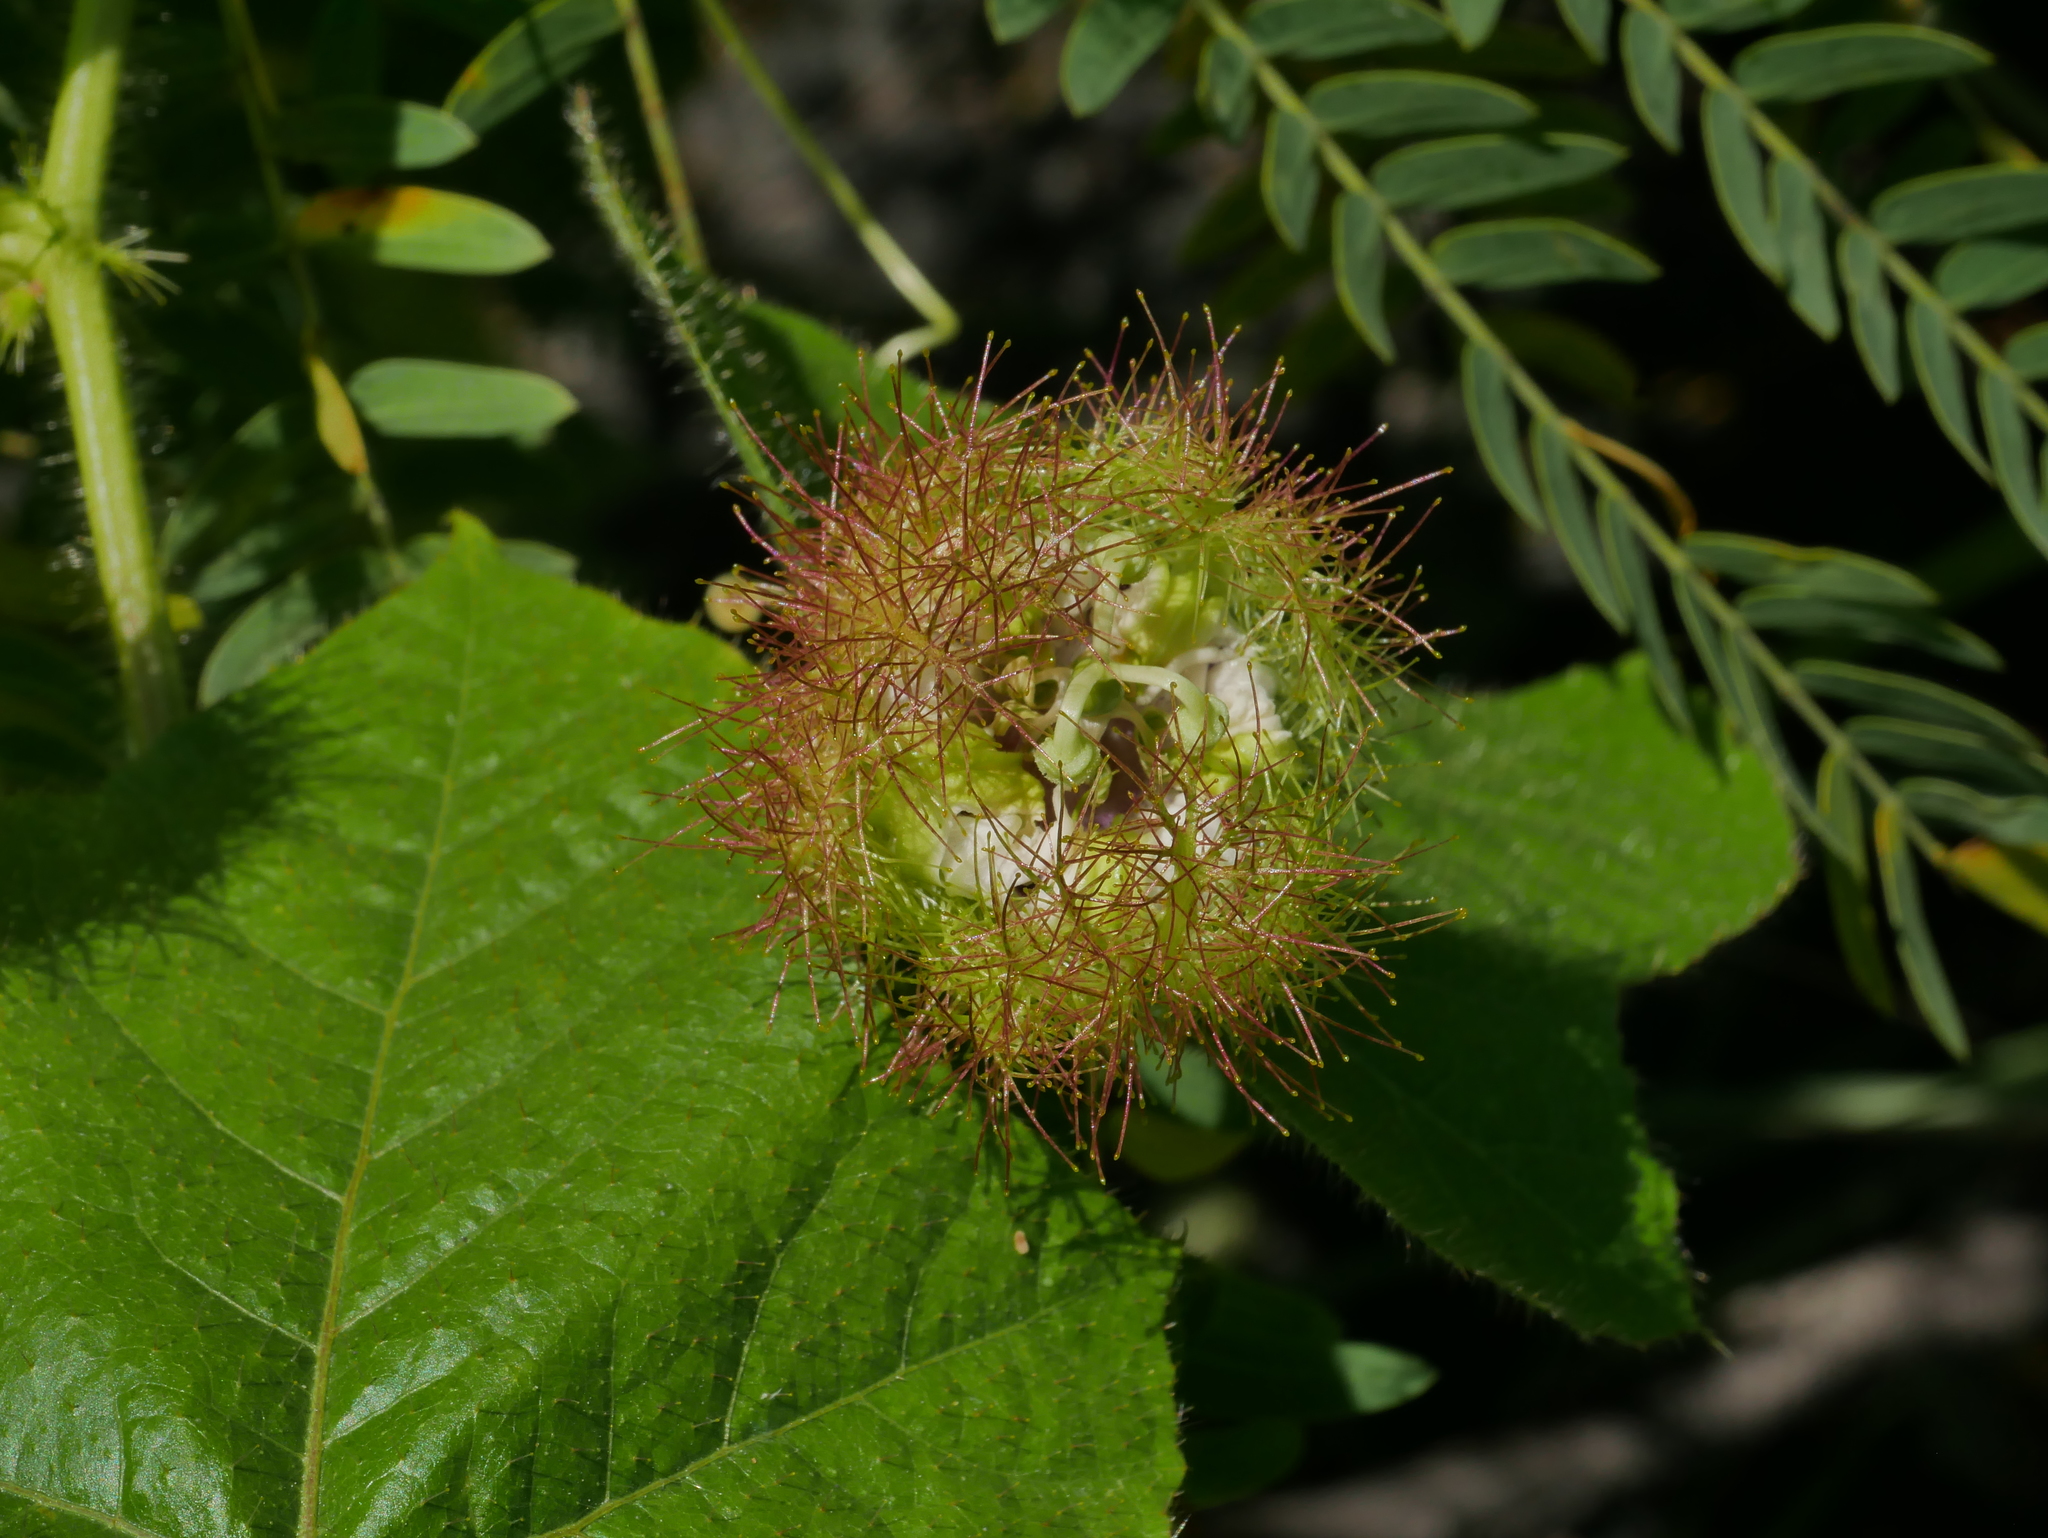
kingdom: Plantae
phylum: Tracheophyta
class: Magnoliopsida
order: Malpighiales
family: Passifloraceae
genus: Passiflora
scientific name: Passiflora vesicaria
